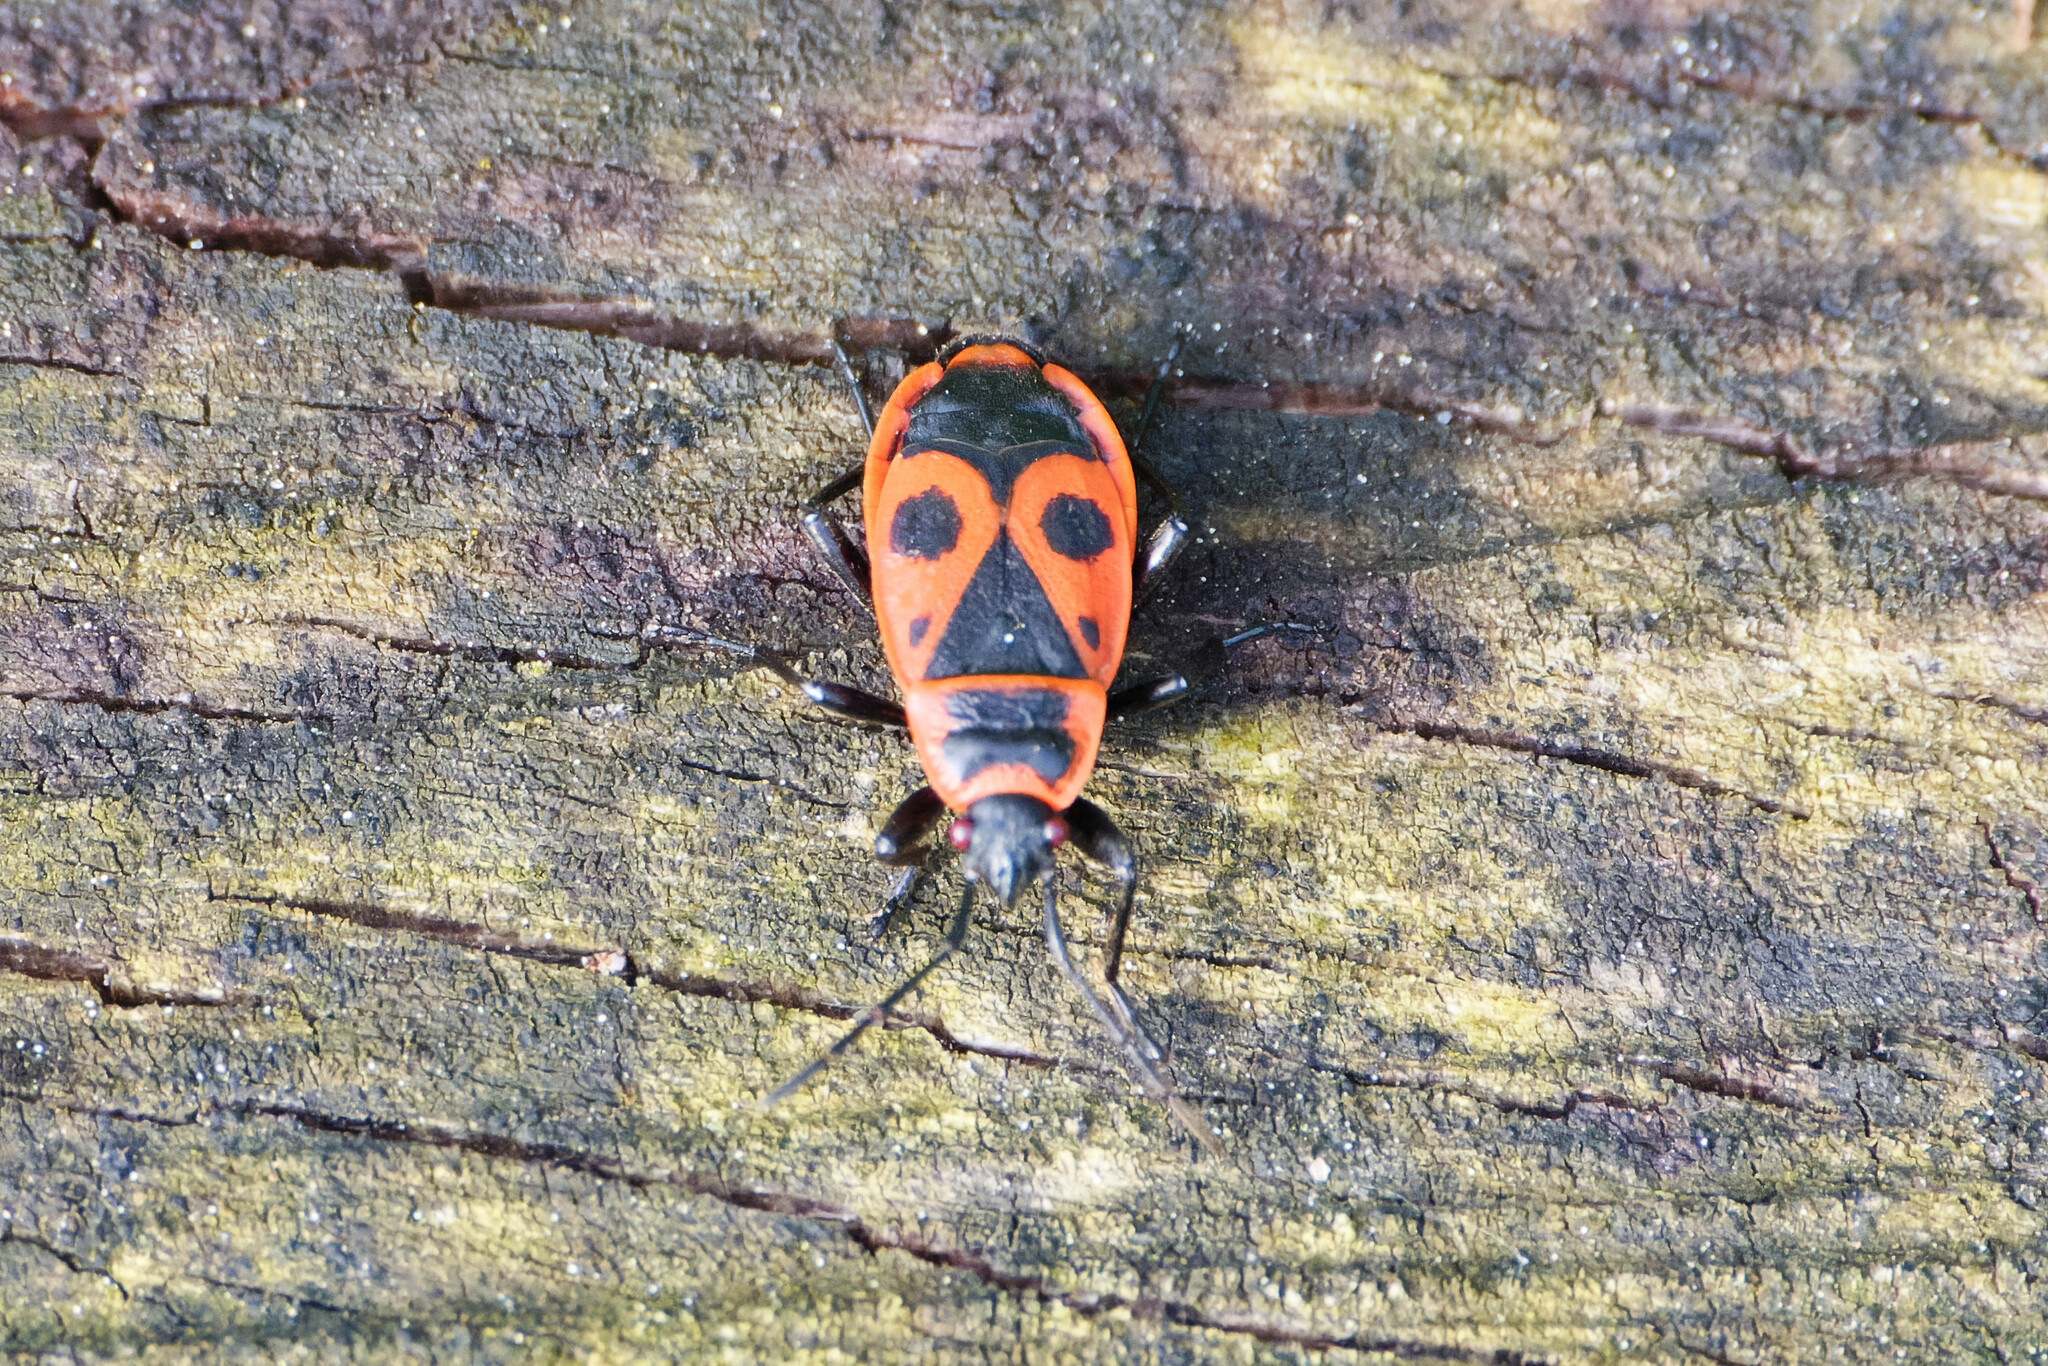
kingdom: Animalia
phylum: Arthropoda
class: Insecta
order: Hemiptera
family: Pyrrhocoridae
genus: Pyrrhocoris
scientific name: Pyrrhocoris apterus
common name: Firebug
